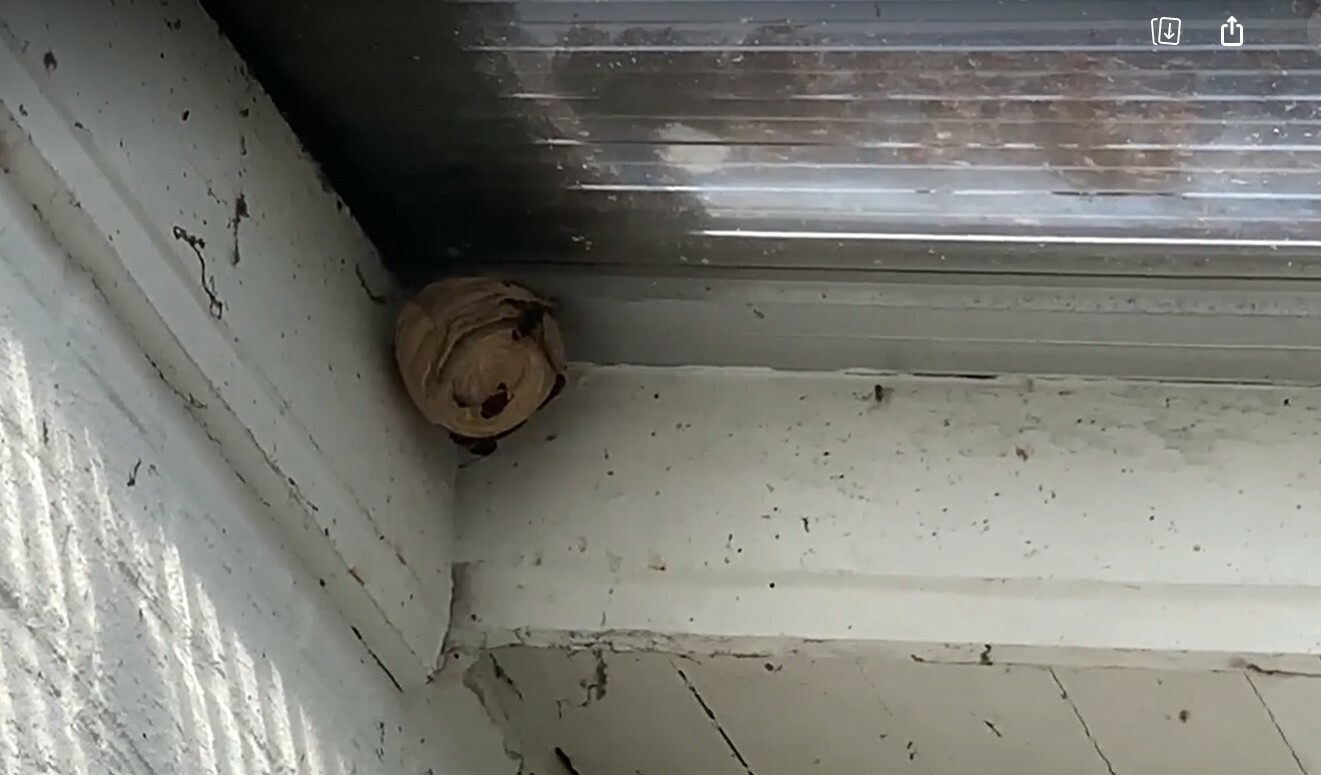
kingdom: Animalia
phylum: Arthropoda
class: Insecta
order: Hymenoptera
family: Vespidae
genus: Vespa
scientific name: Vespa velutina
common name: Asian hornet
